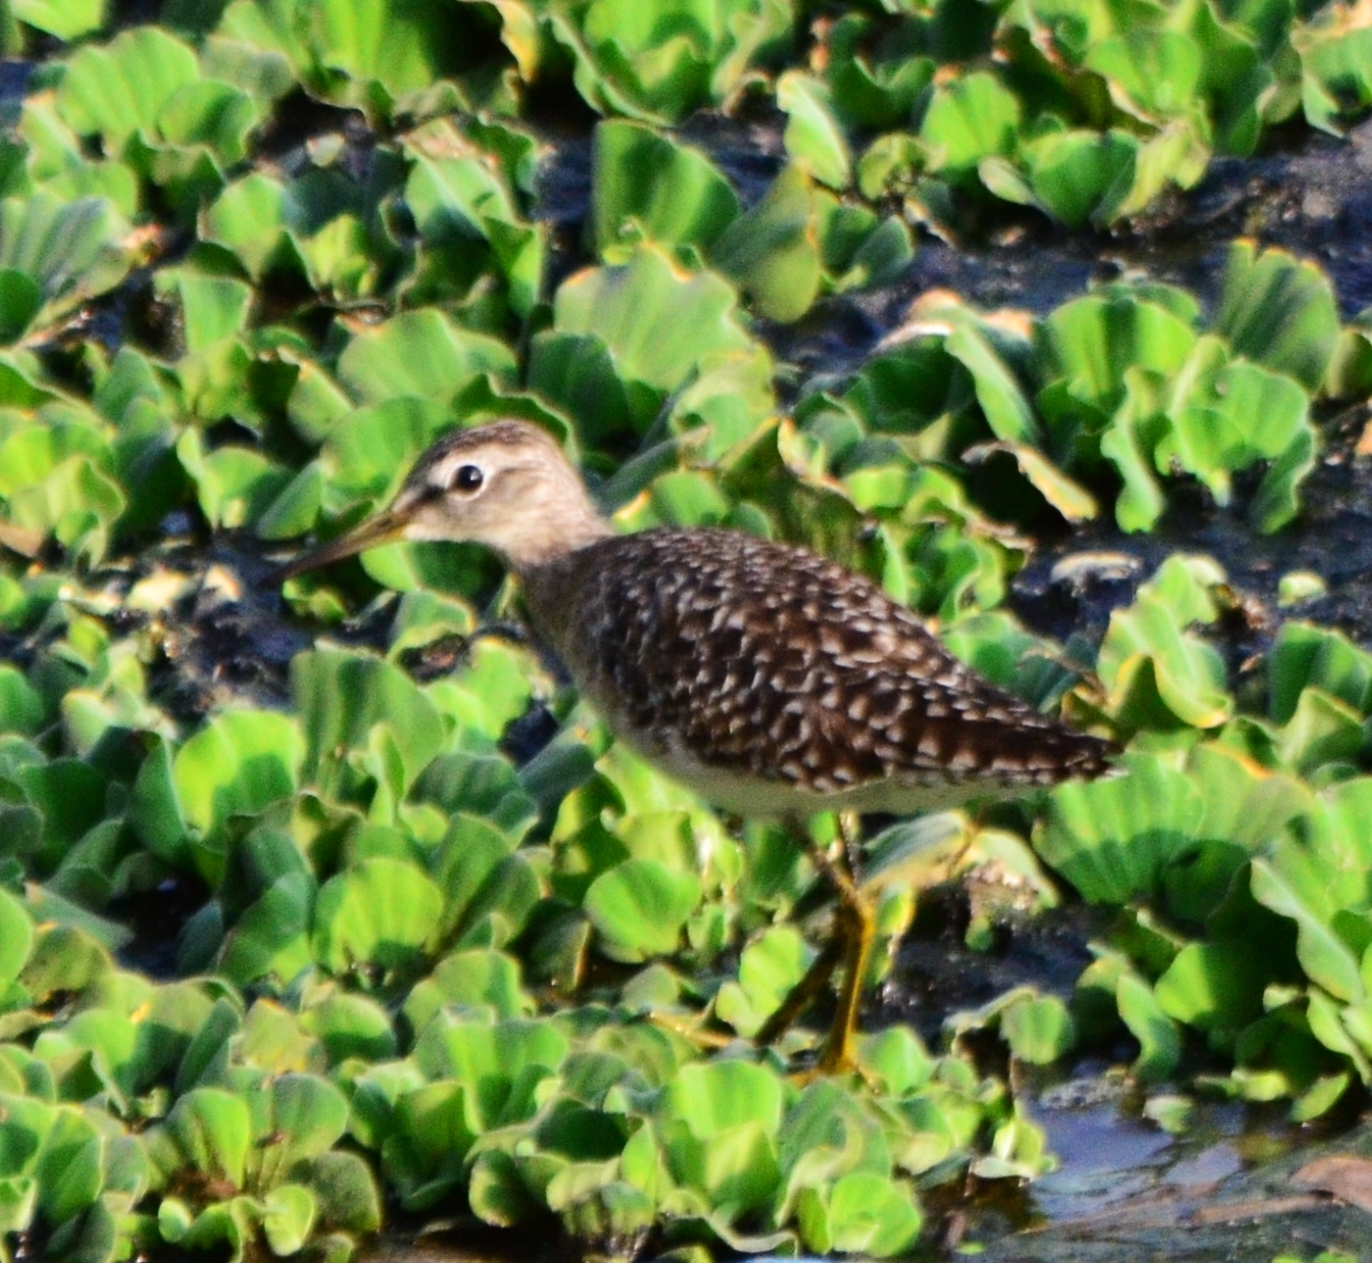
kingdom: Animalia
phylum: Chordata
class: Aves
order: Charadriiformes
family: Scolopacidae
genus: Tringa
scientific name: Tringa glareola
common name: Wood sandpiper
